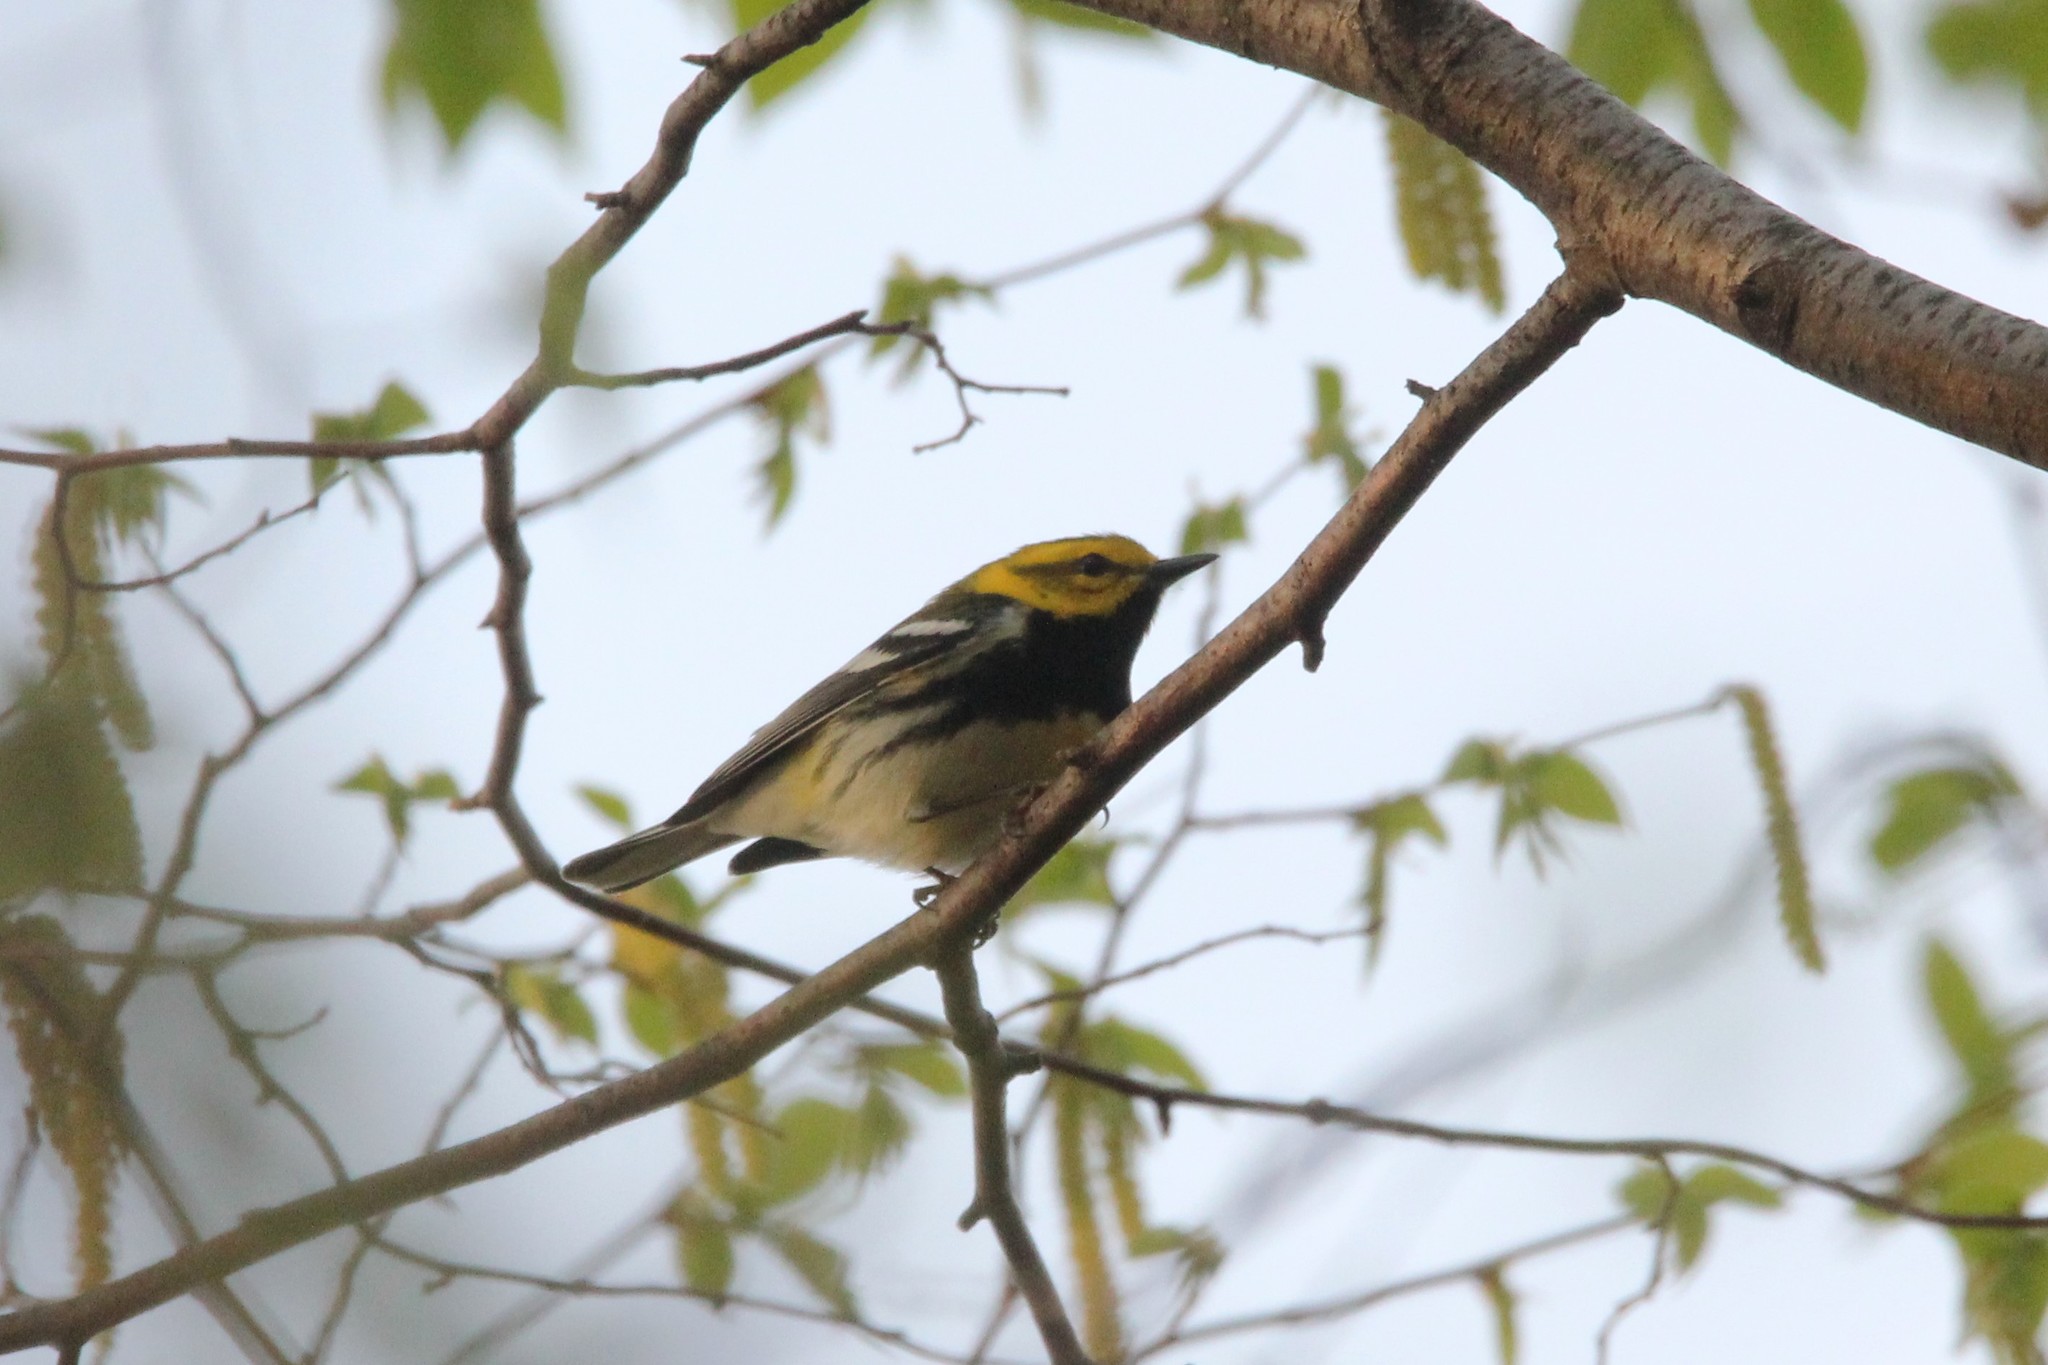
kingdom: Animalia
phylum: Chordata
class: Aves
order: Passeriformes
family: Parulidae
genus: Setophaga
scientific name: Setophaga virens
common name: Black-throated green warbler
